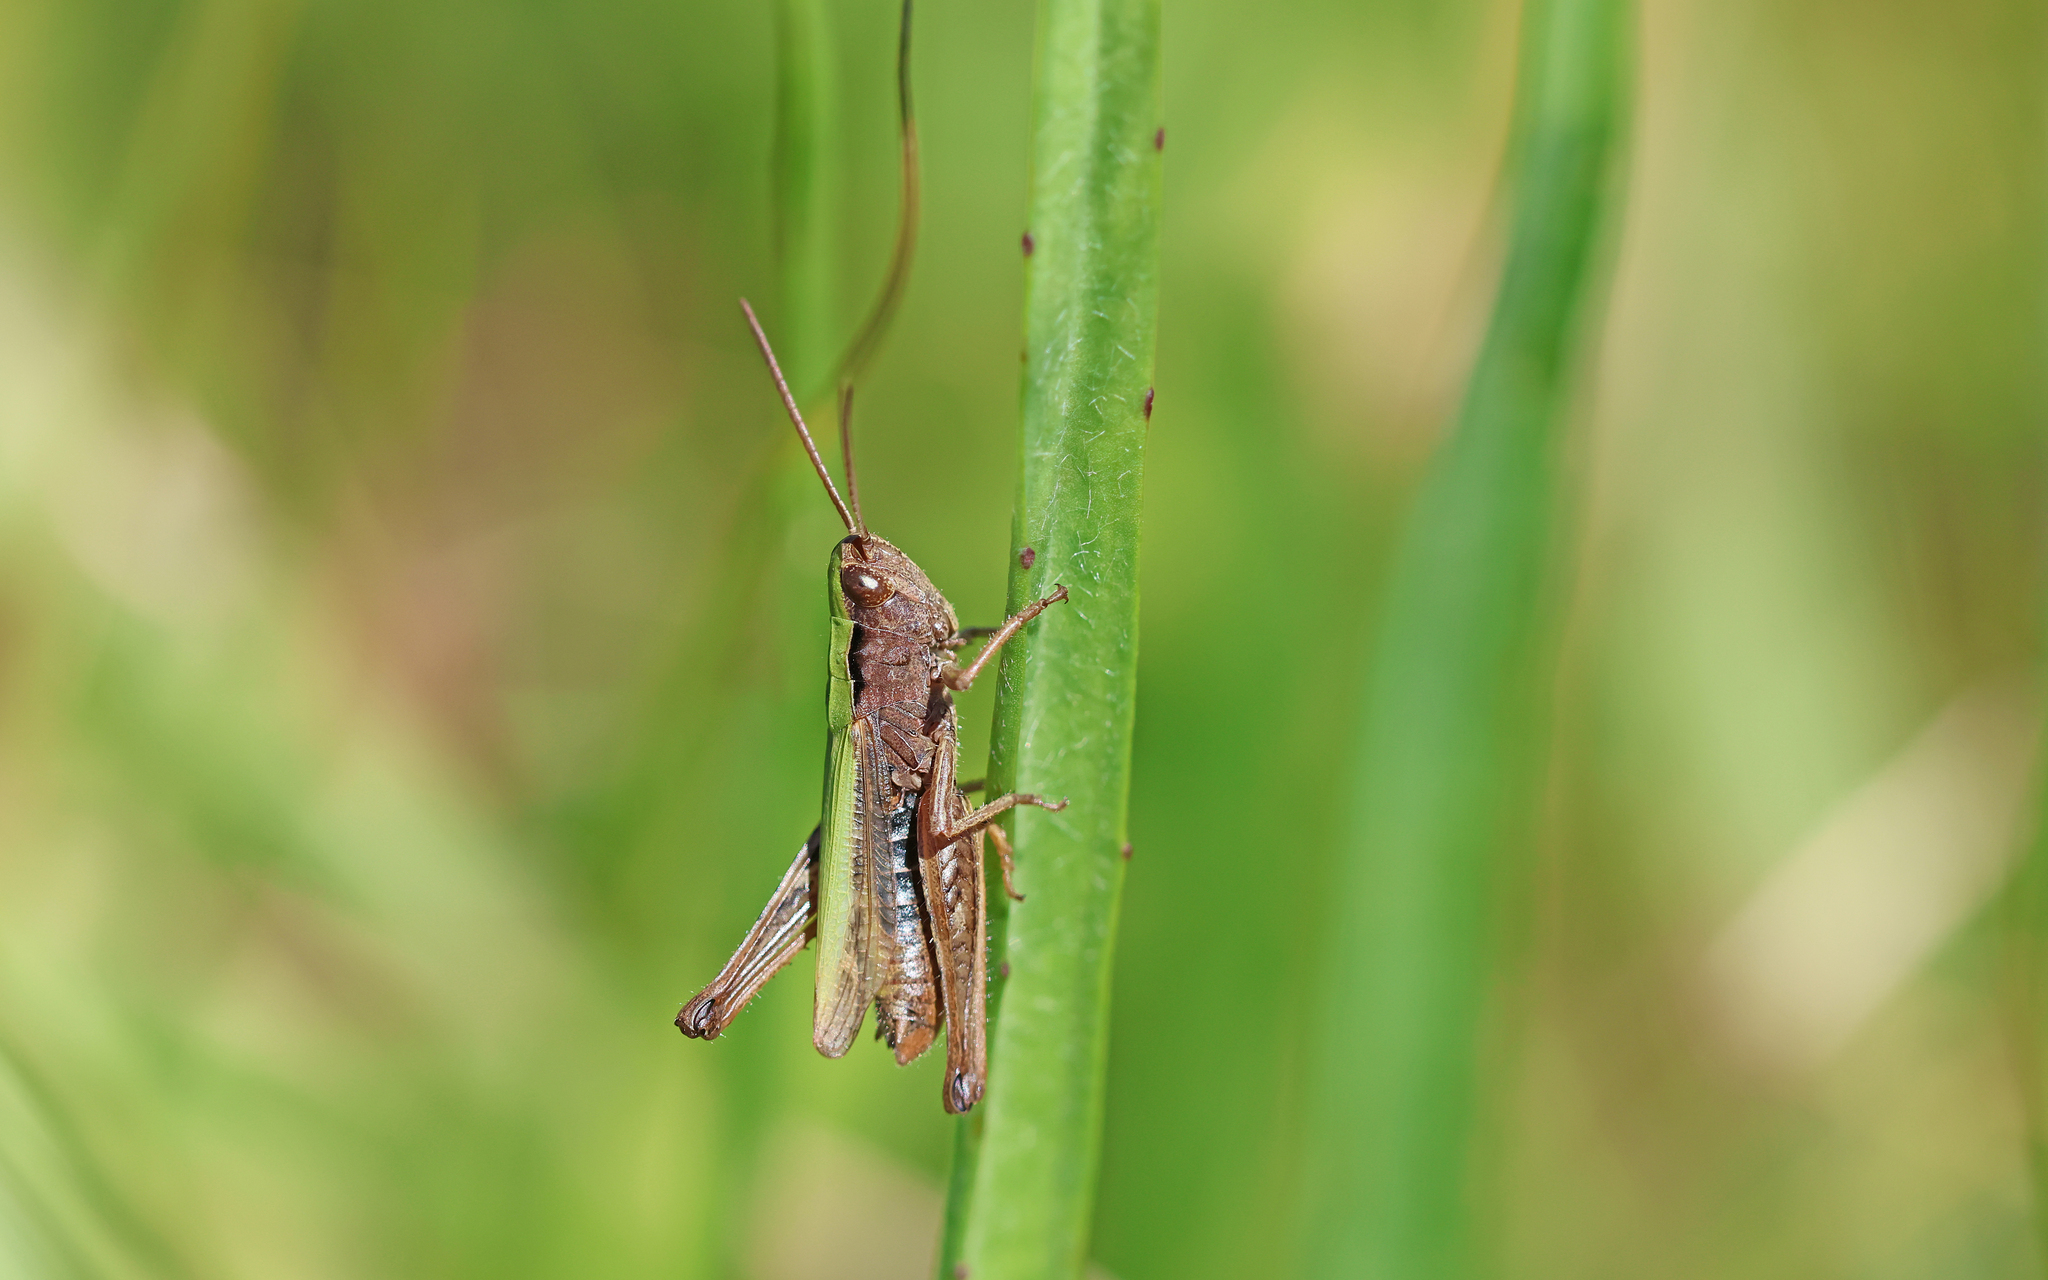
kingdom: Animalia
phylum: Arthropoda
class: Insecta
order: Orthoptera
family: Acrididae
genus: Chorthippus
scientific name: Chorthippus dorsatus
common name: Steppe grasshopper
